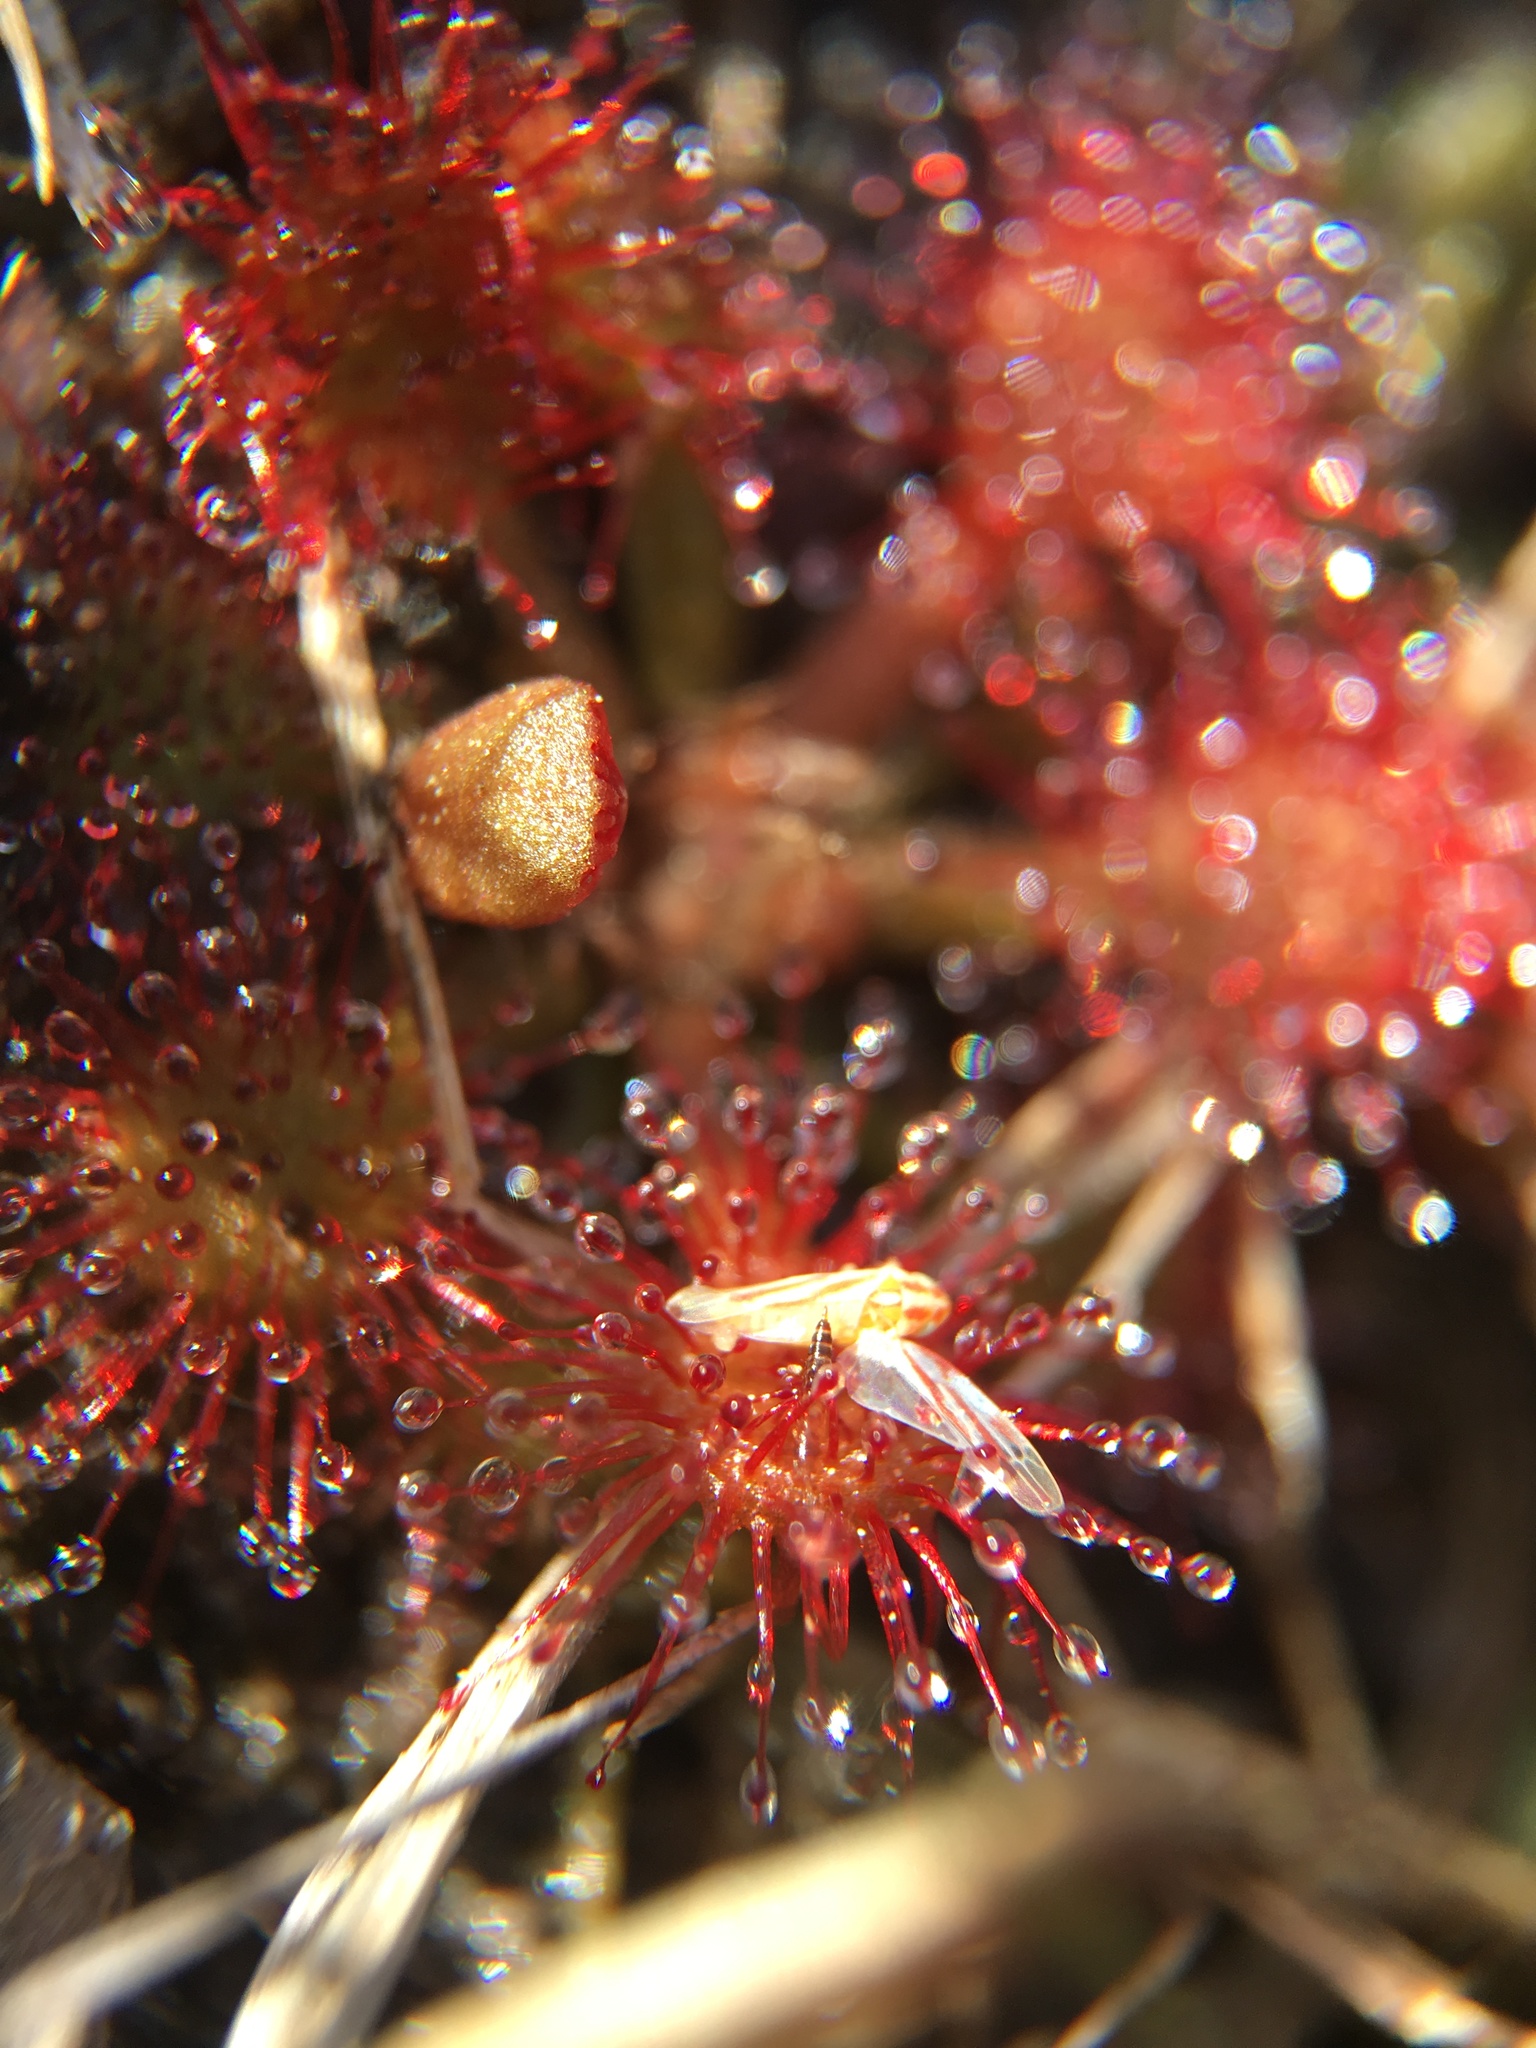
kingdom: Plantae
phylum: Tracheophyta
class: Magnoliopsida
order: Caryophyllales
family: Droseraceae
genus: Drosera
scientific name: Drosera capillaris
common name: Pink sundew
